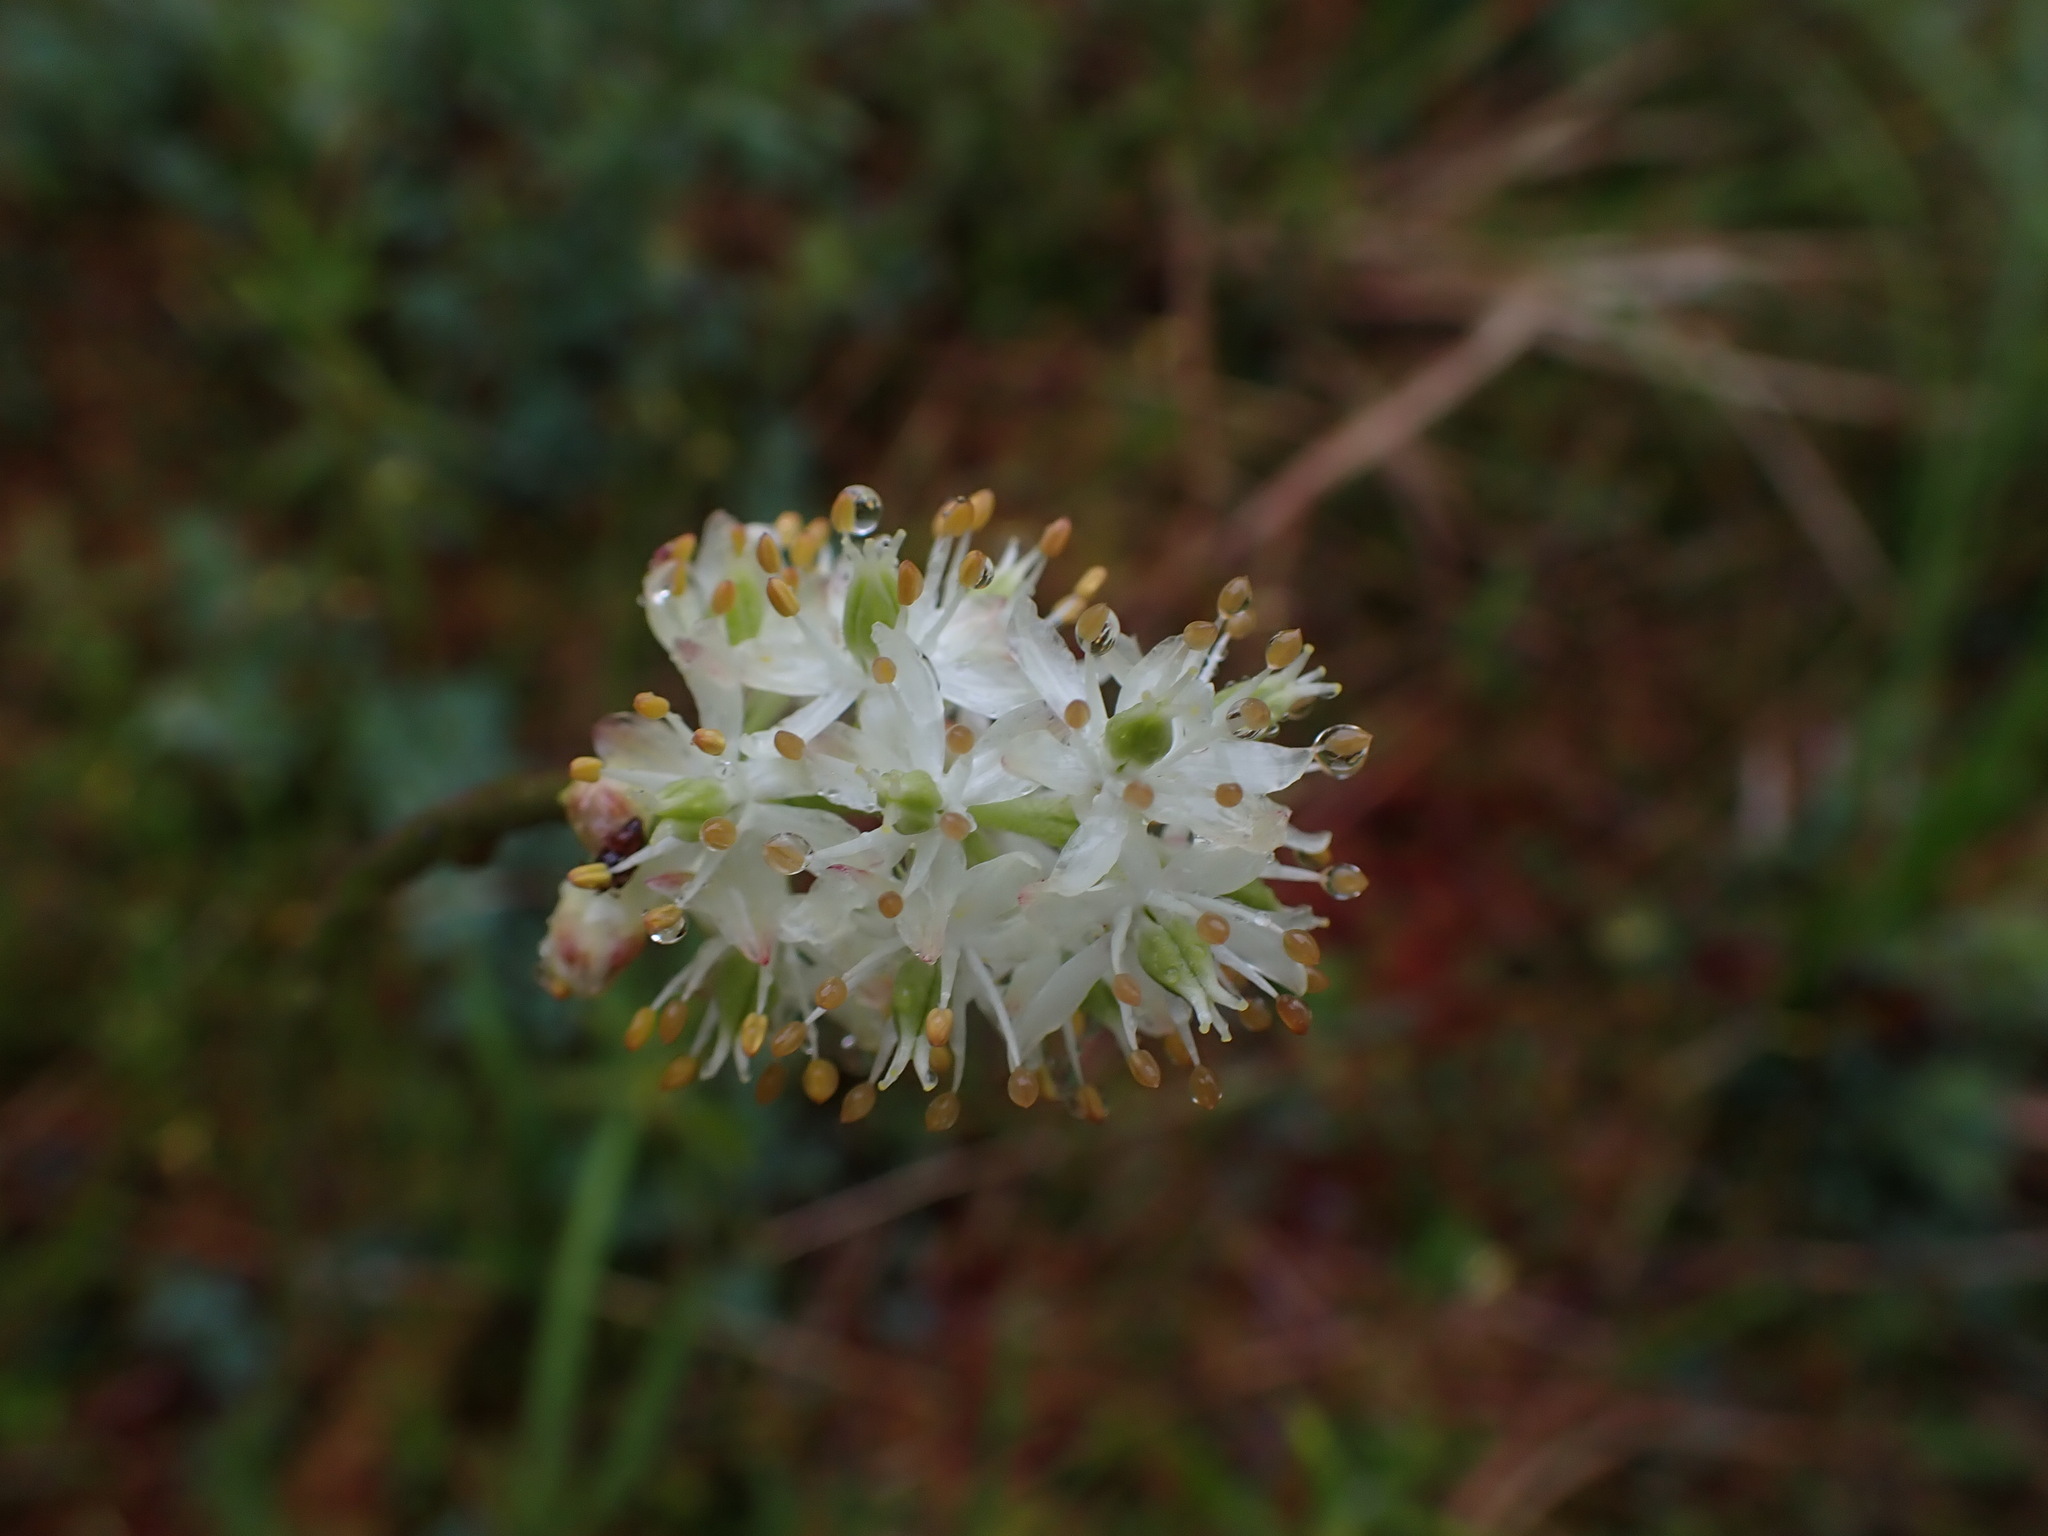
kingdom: Plantae
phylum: Tracheophyta
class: Liliopsida
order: Alismatales
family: Tofieldiaceae
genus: Triantha
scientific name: Triantha occidentalis
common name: Western false asphodel
